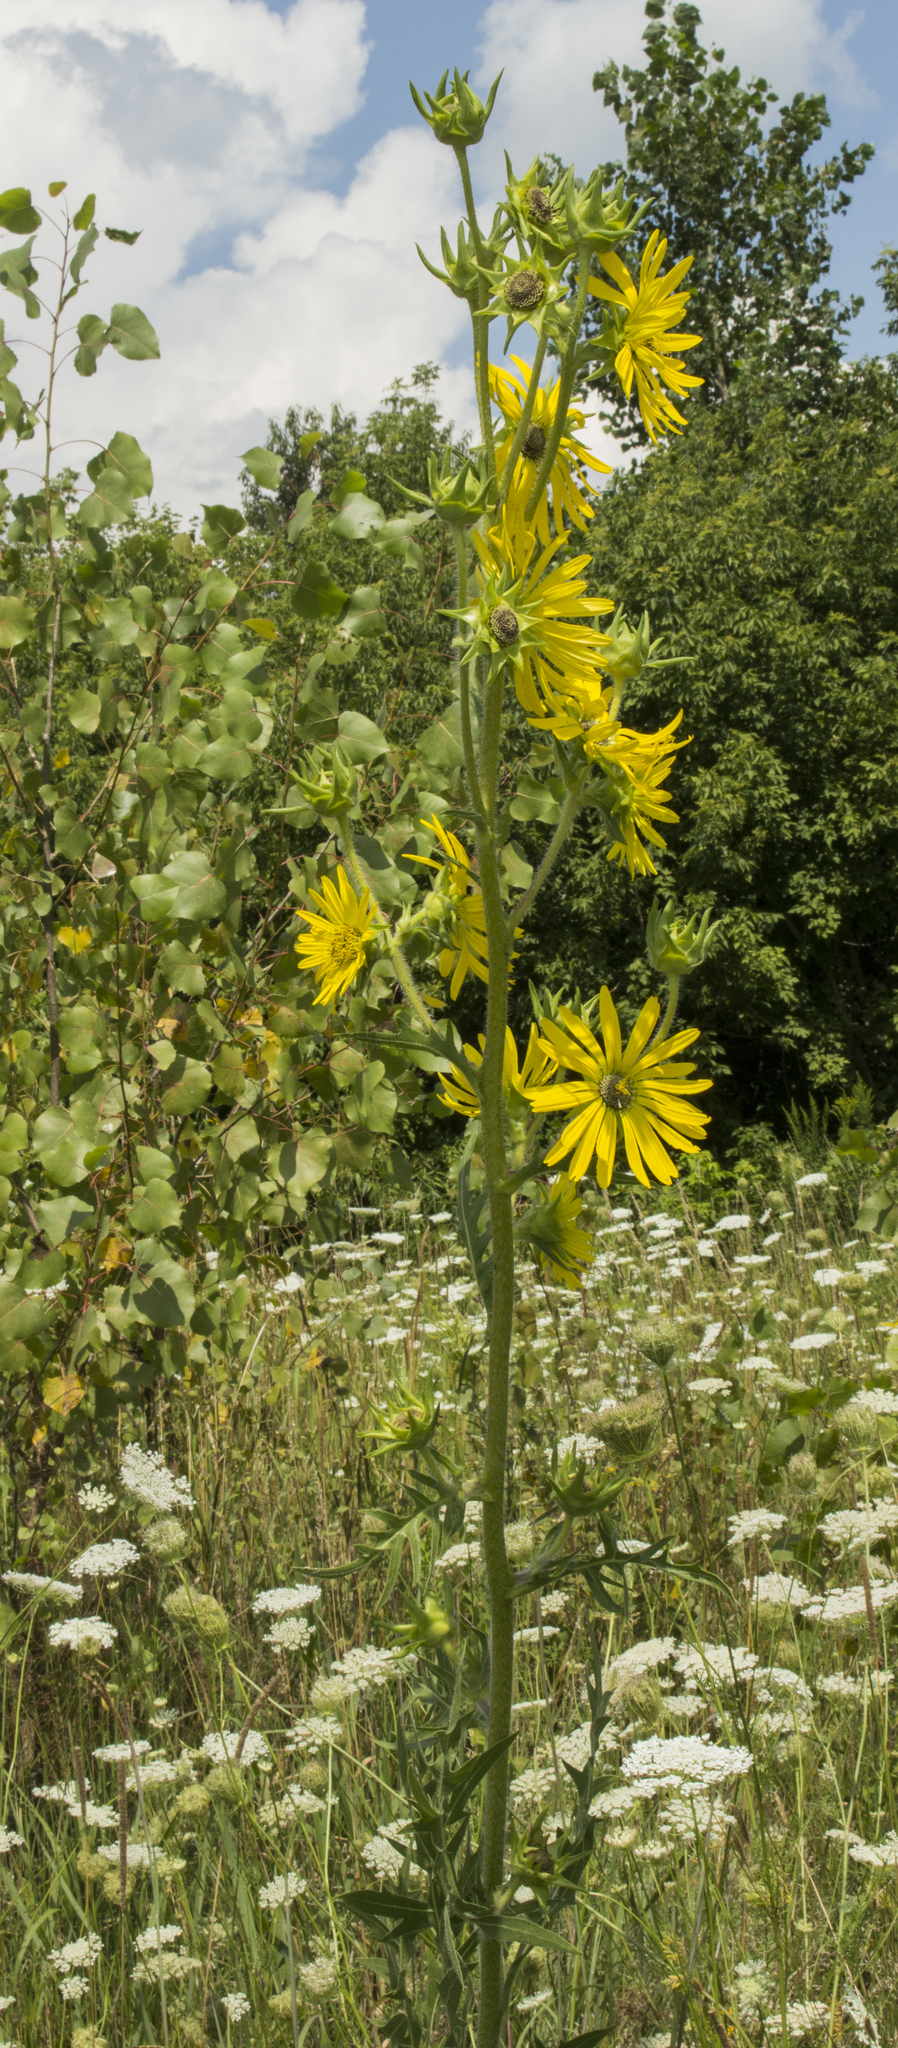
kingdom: Plantae
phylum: Tracheophyta
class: Magnoliopsida
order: Asterales
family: Asteraceae
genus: Silphium
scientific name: Silphium laciniatum
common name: Polarplant
